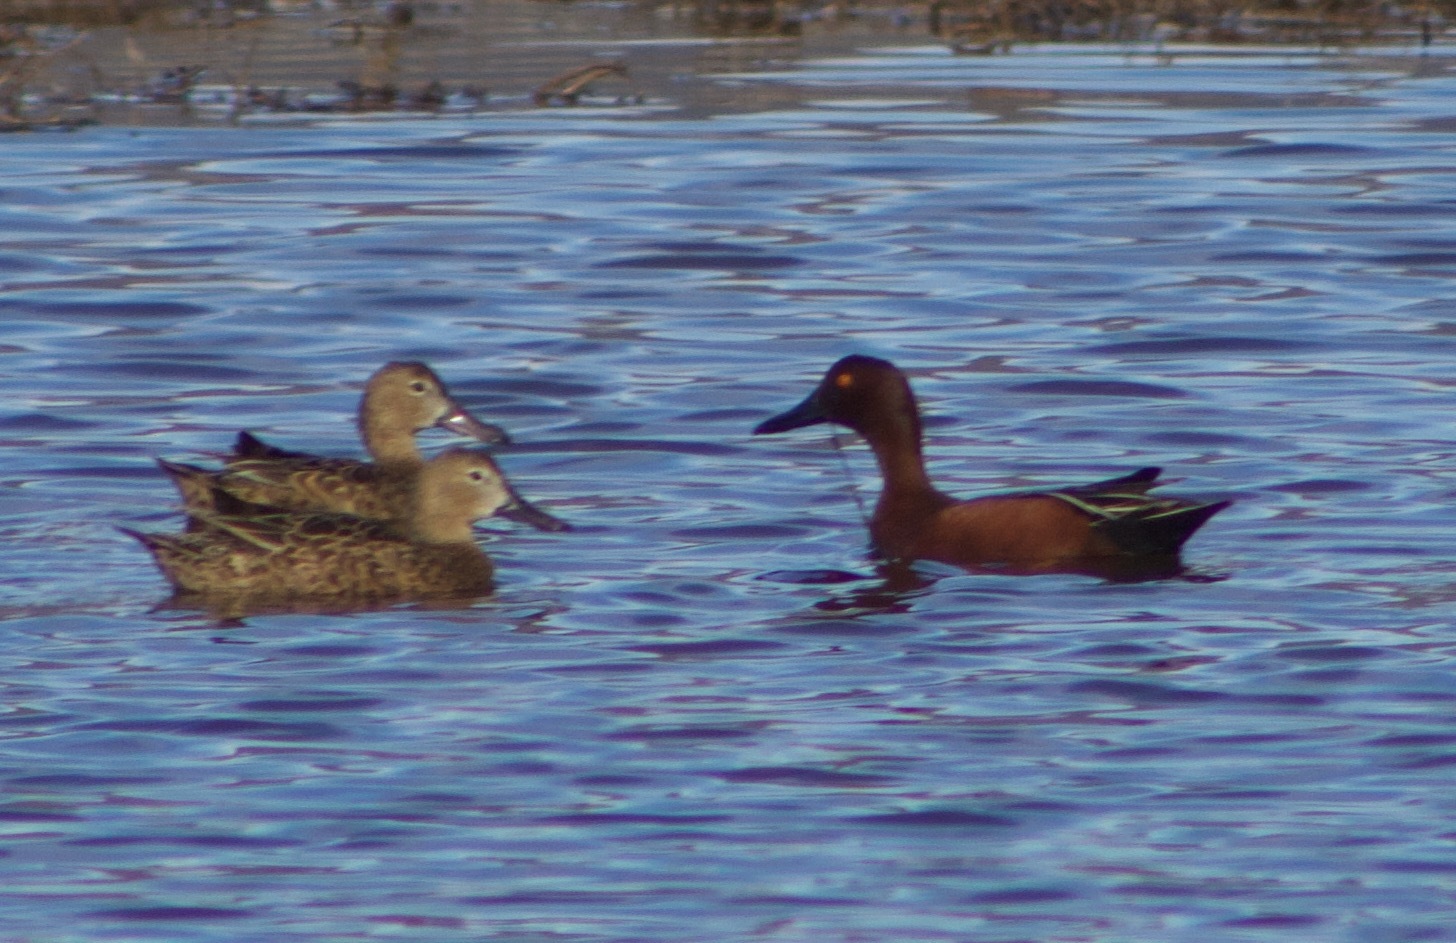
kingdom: Animalia
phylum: Chordata
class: Aves
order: Anseriformes
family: Anatidae
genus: Spatula
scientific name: Spatula cyanoptera
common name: Cinnamon teal
